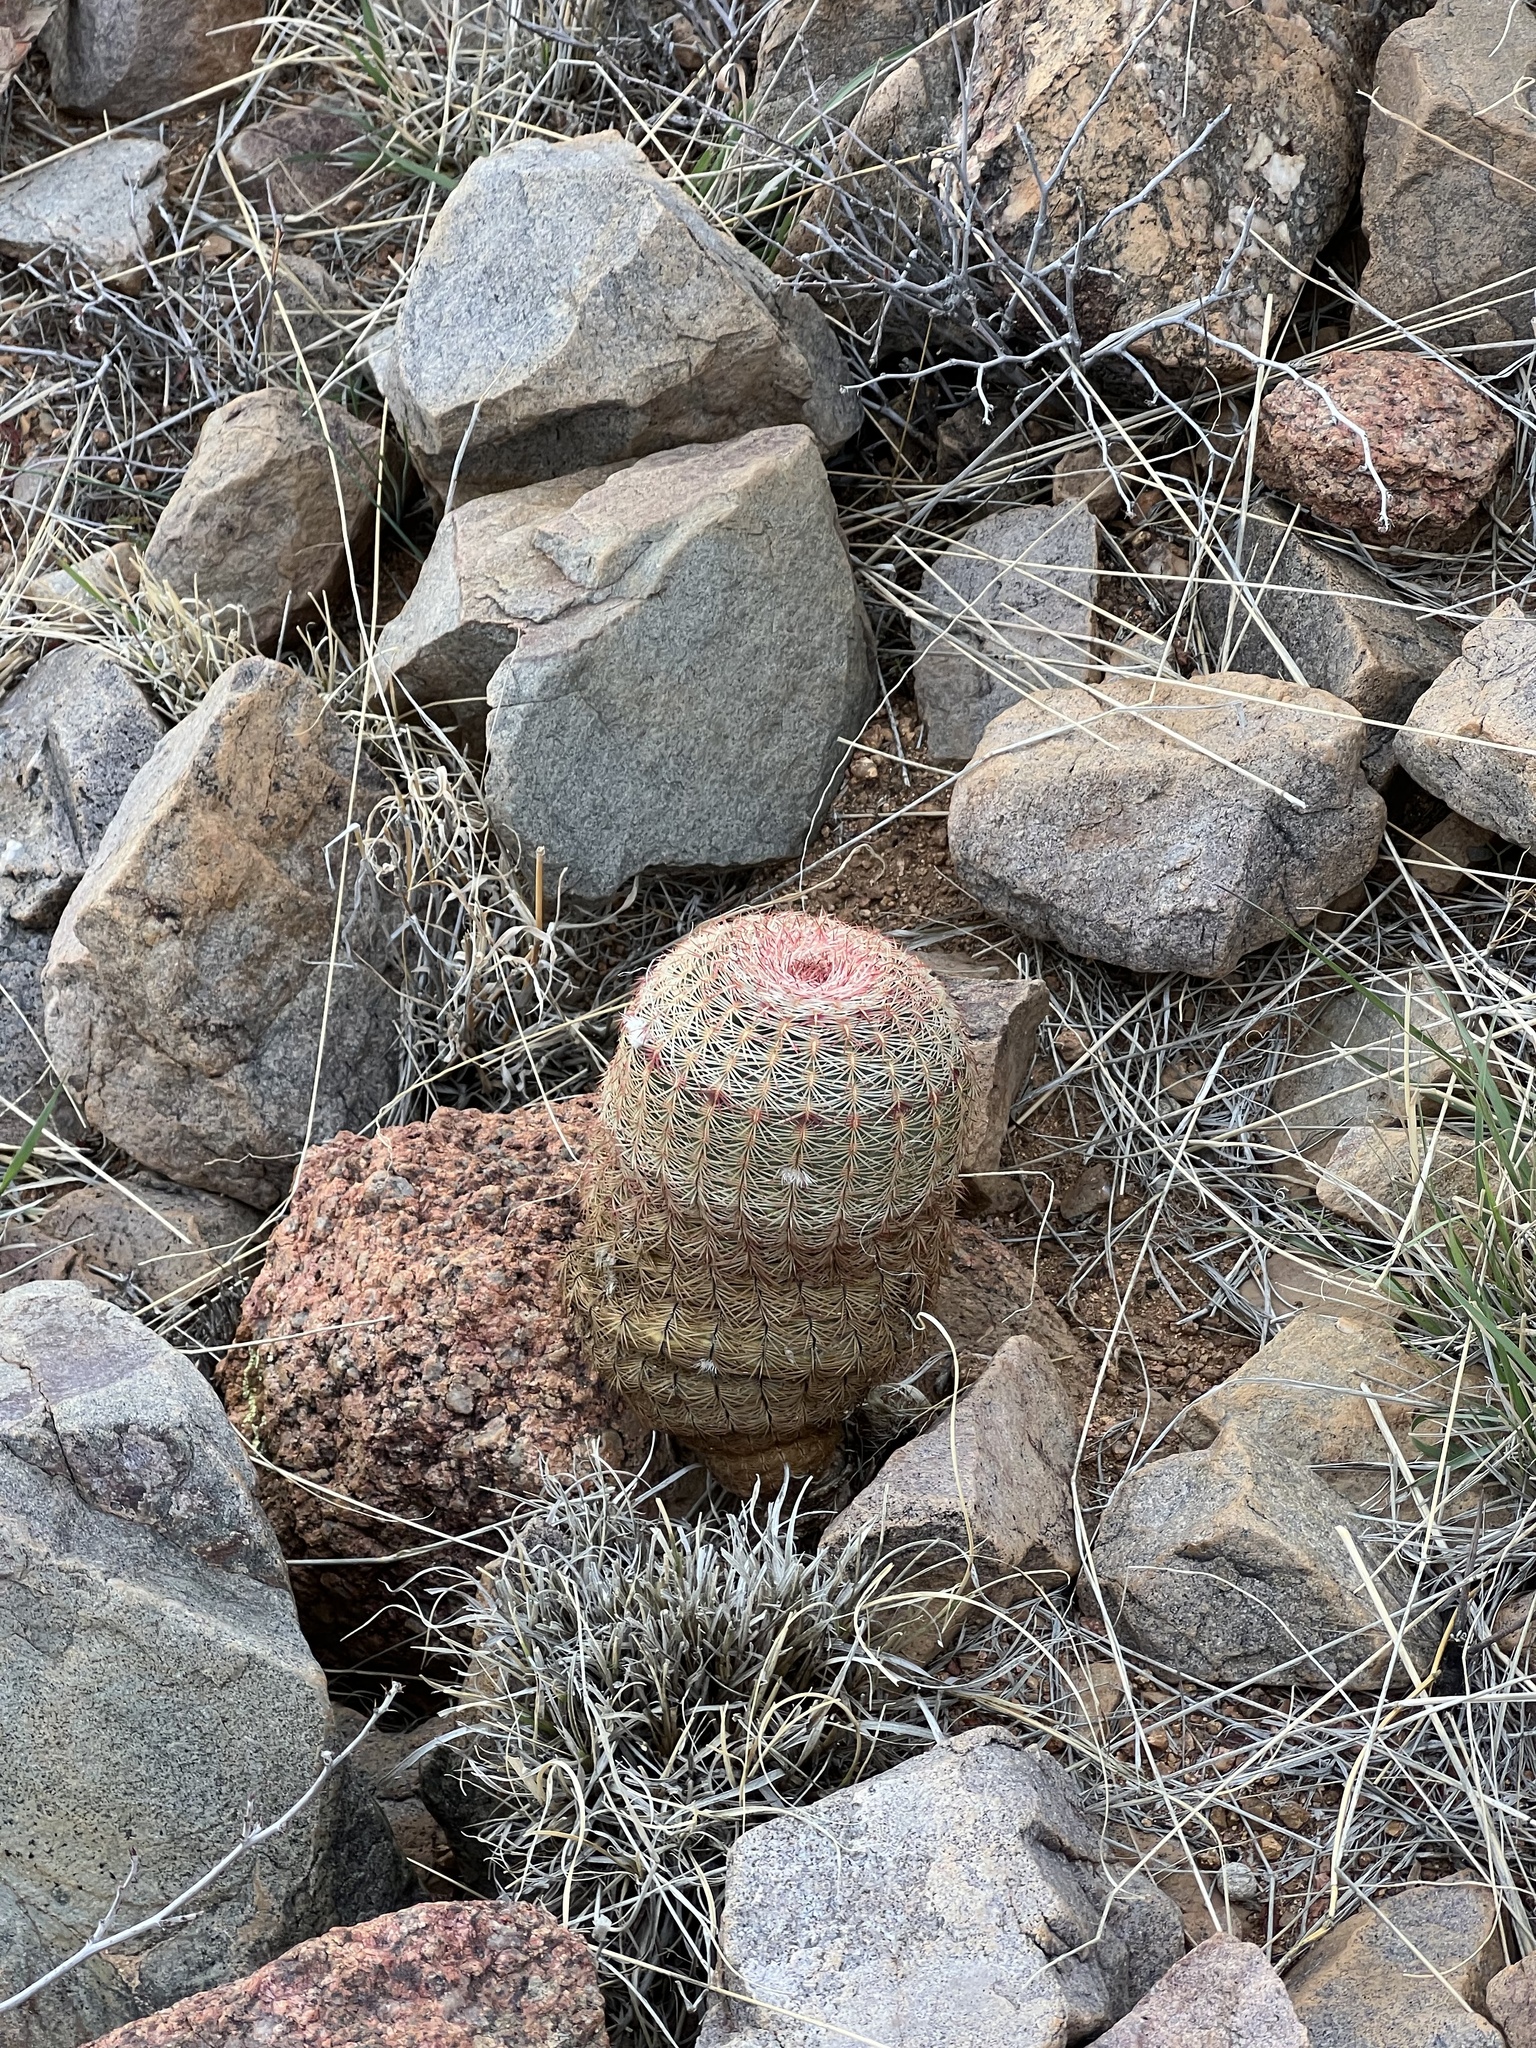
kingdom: Plantae
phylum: Tracheophyta
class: Magnoliopsida
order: Caryophyllales
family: Cactaceae
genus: Echinocereus
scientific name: Echinocereus rigidissimus
